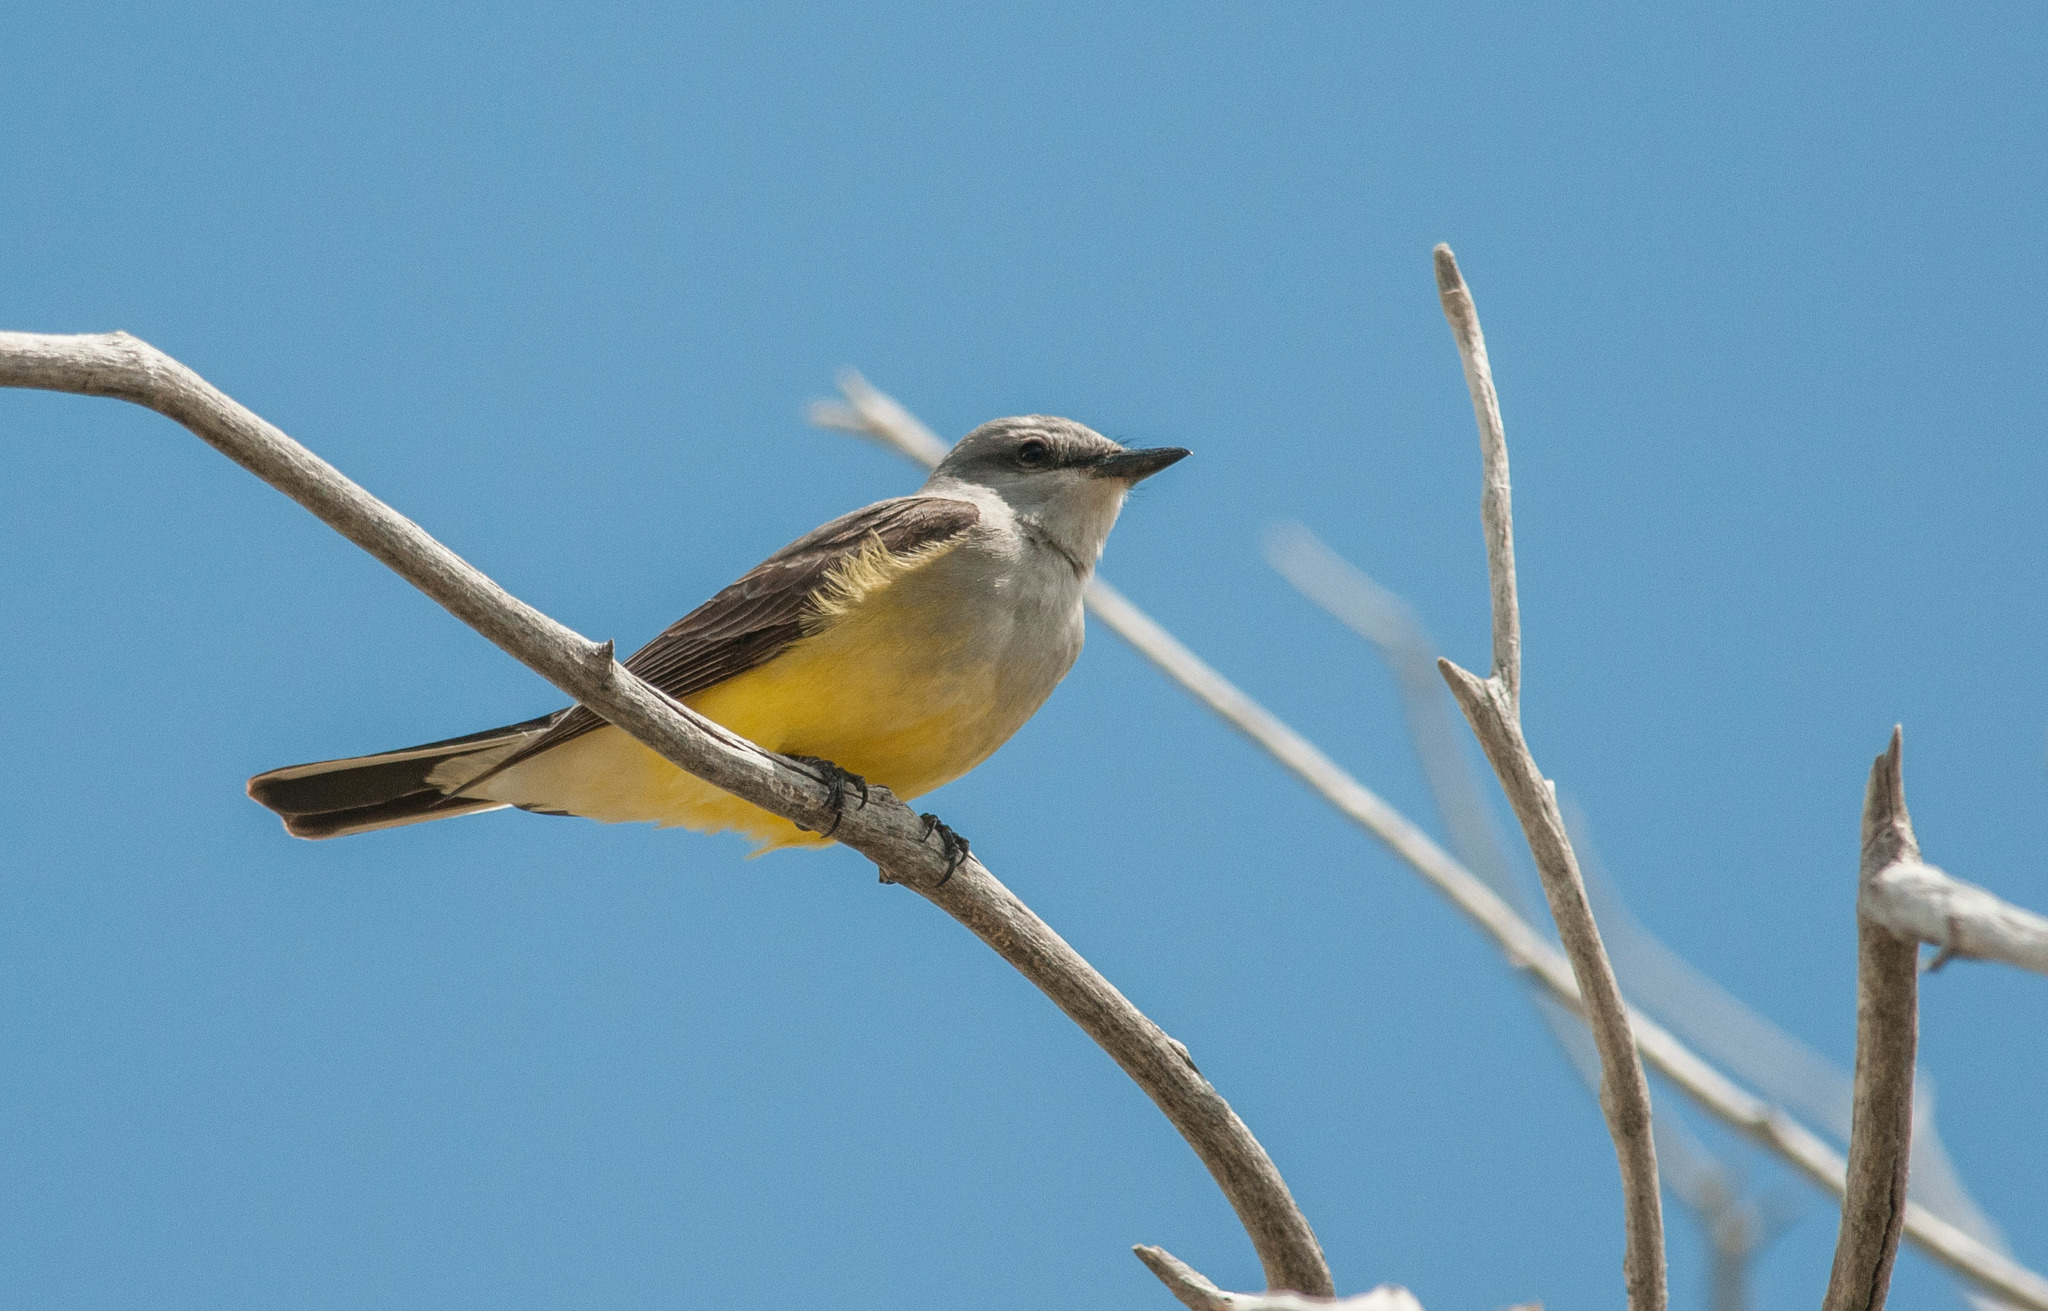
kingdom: Animalia
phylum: Chordata
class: Aves
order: Passeriformes
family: Tyrannidae
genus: Tyrannus
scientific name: Tyrannus verticalis
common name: Western kingbird
